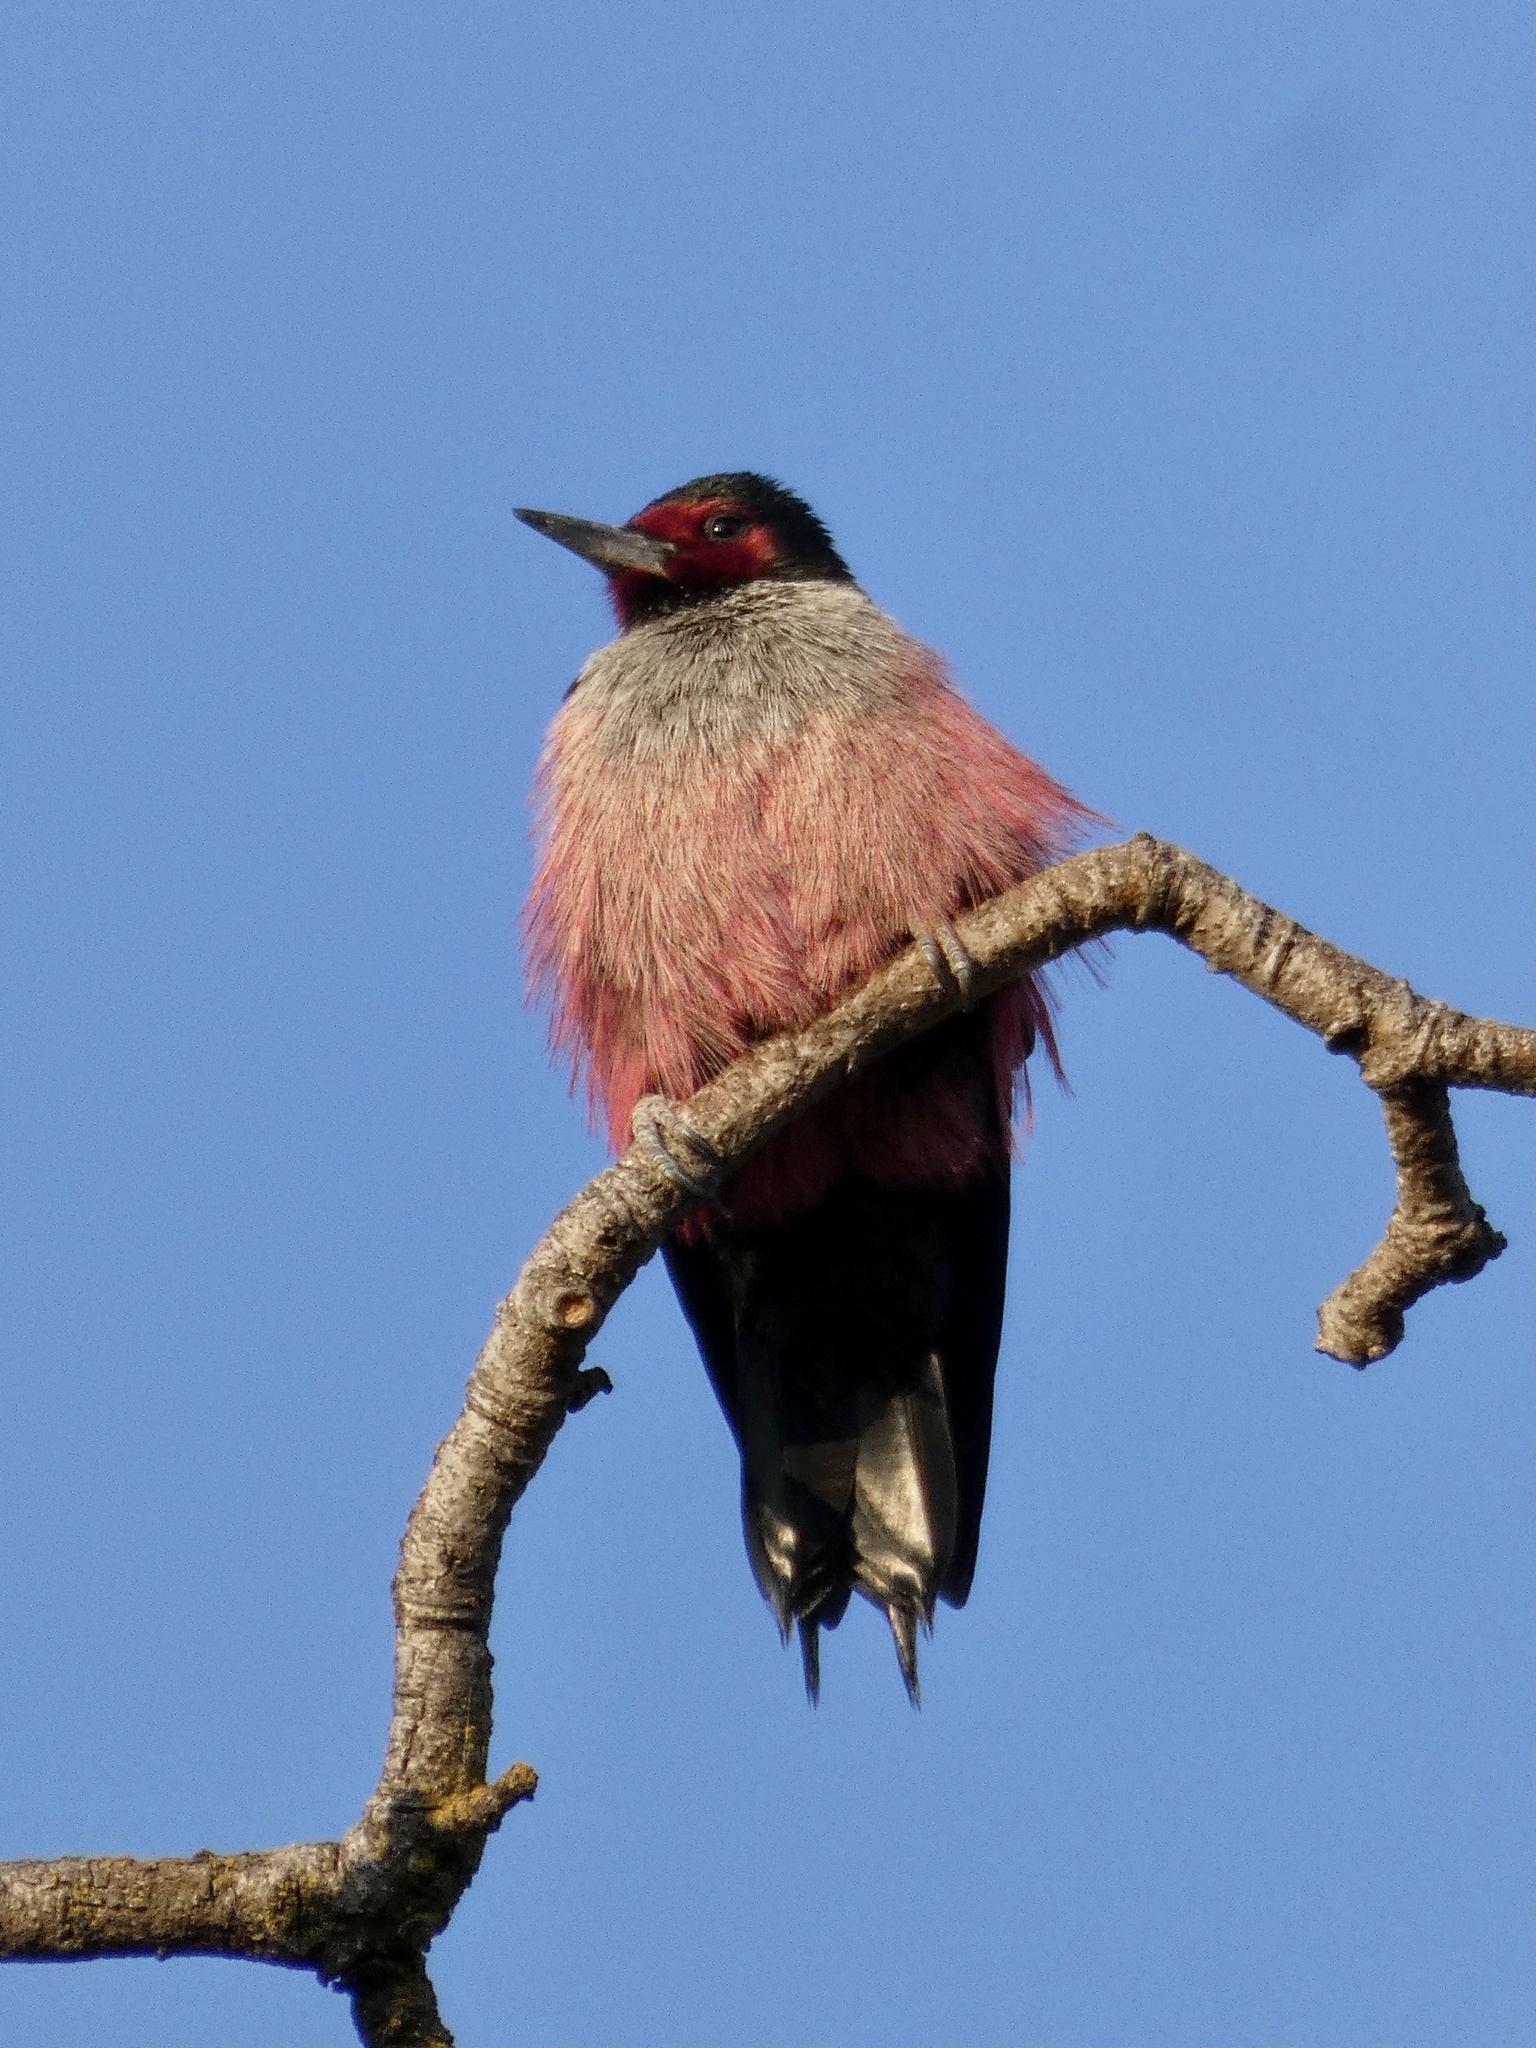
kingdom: Animalia
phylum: Chordata
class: Aves
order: Piciformes
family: Picidae
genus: Melanerpes
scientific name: Melanerpes lewis
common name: Lewis's woodpecker
